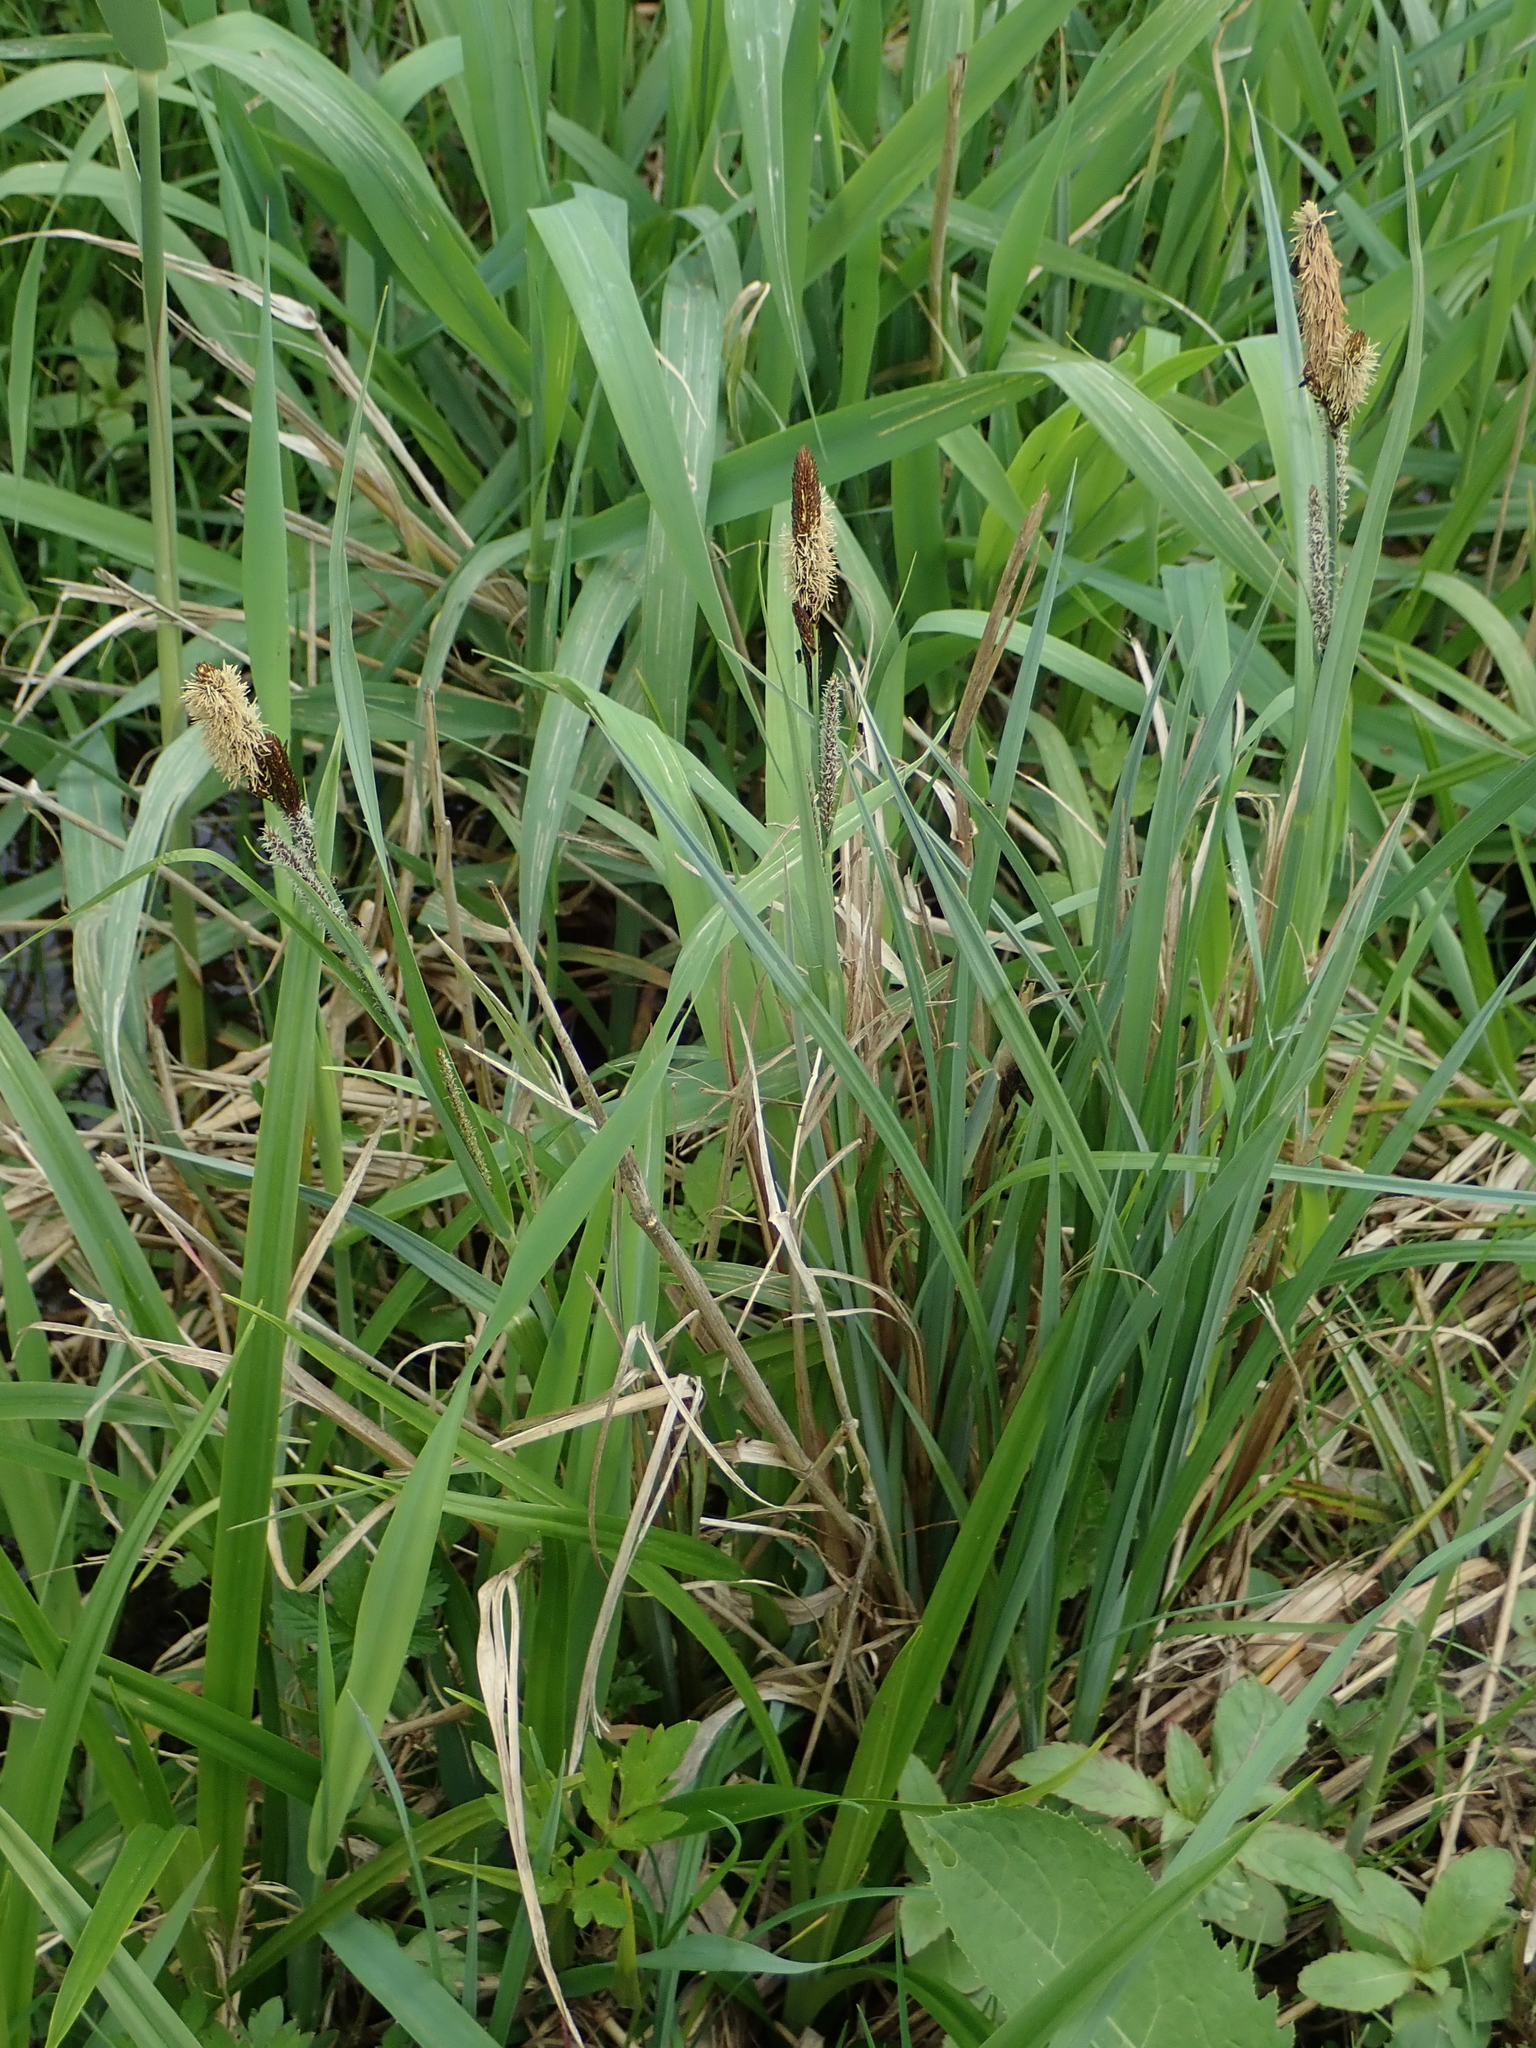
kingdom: Plantae
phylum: Tracheophyta
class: Liliopsida
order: Poales
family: Cyperaceae
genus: Carex
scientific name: Carex acutiformis
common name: Lesser pond-sedge
